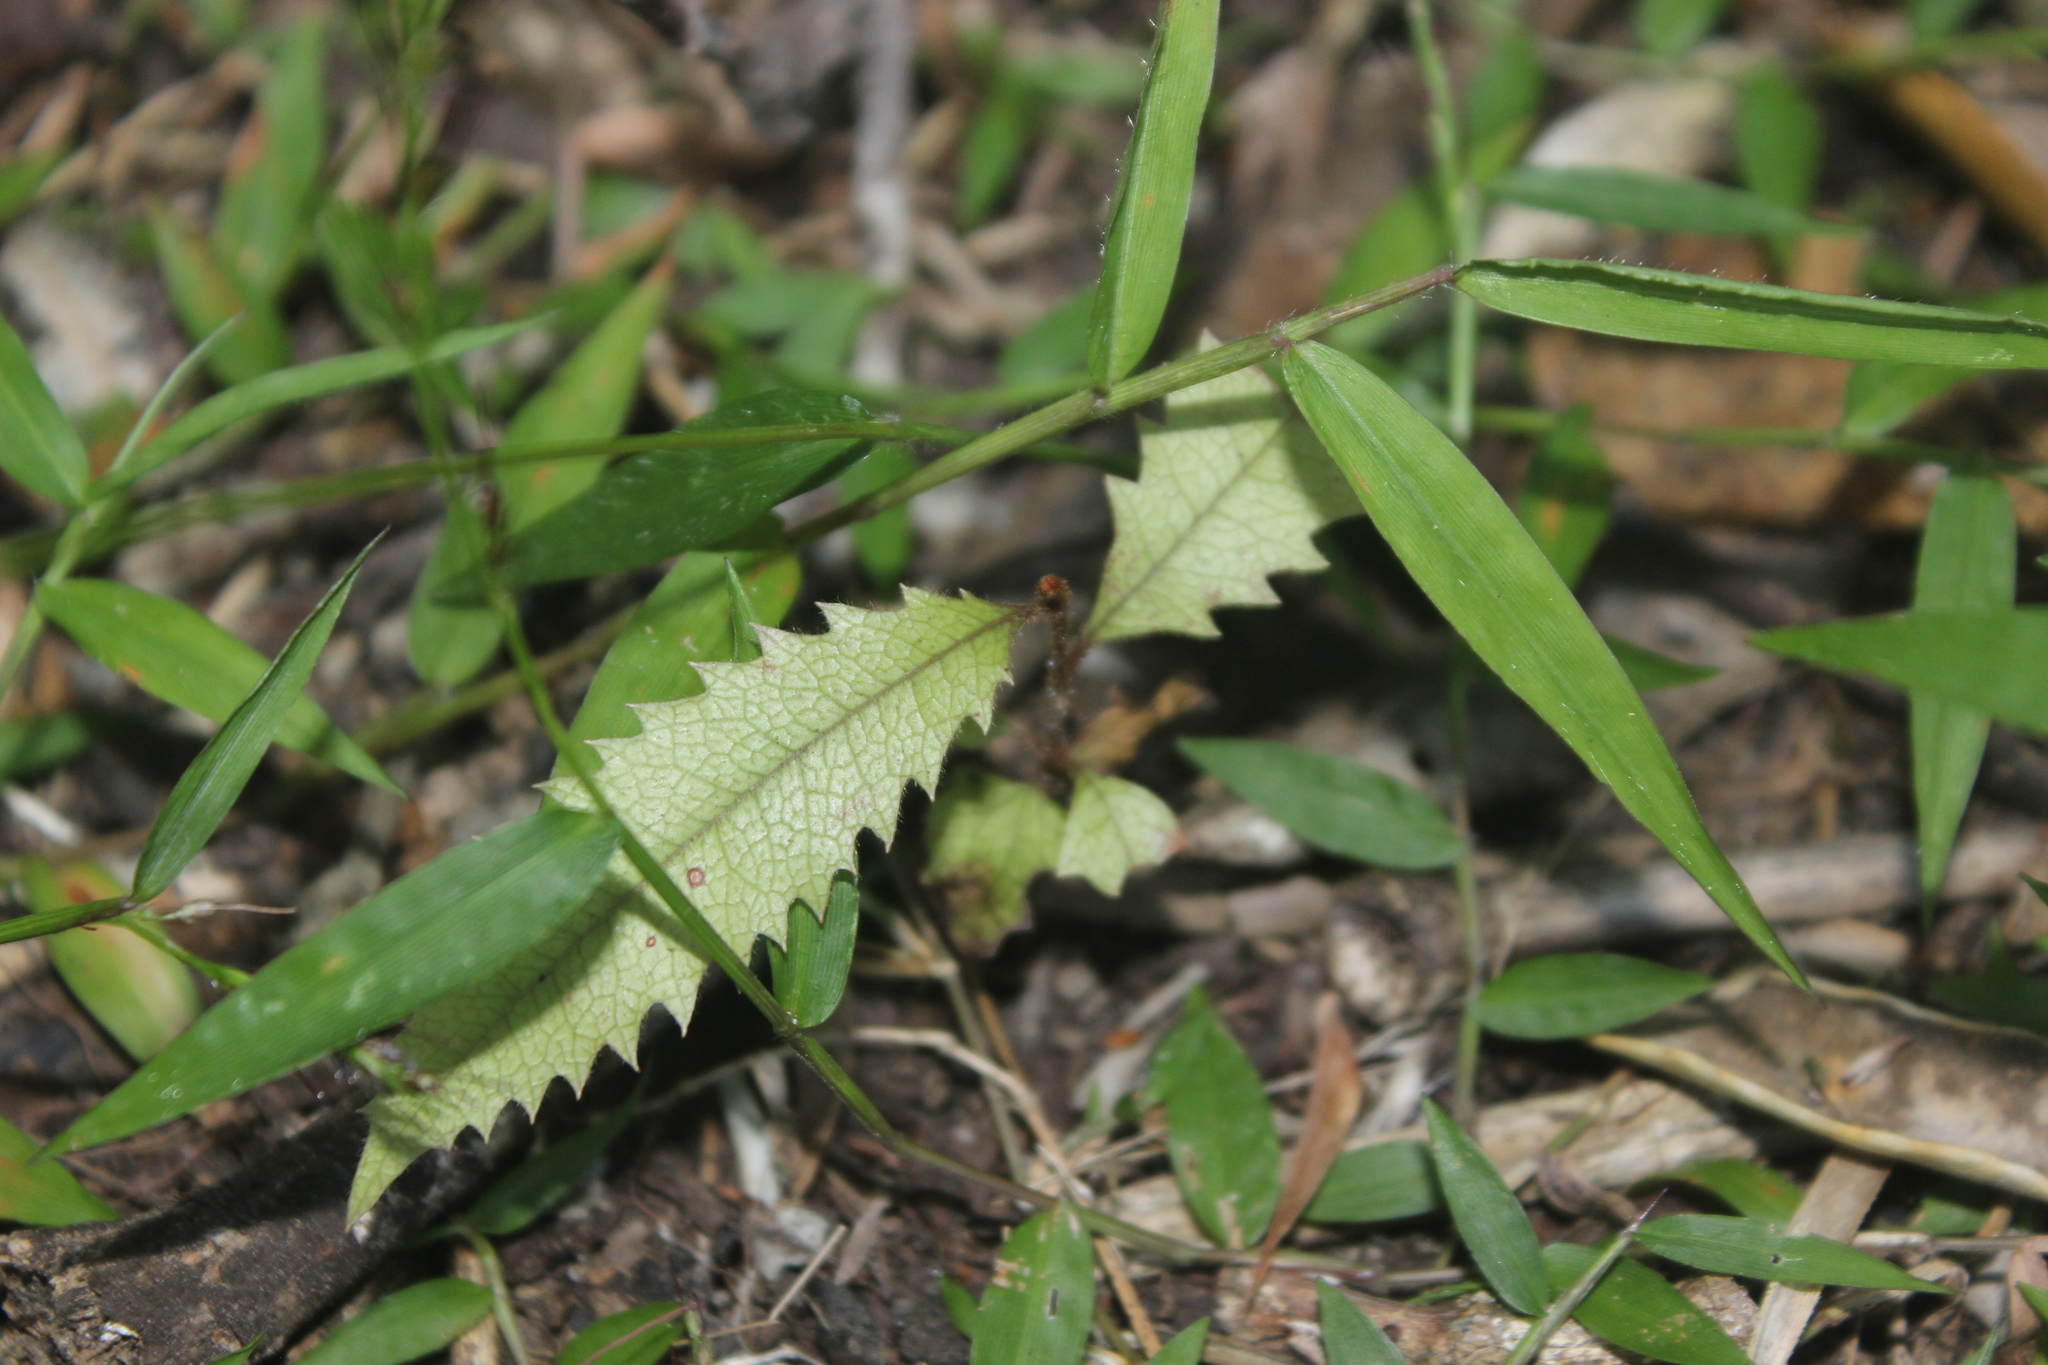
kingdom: Plantae
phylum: Tracheophyta
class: Magnoliopsida
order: Proteales
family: Proteaceae
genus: Knightia
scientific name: Knightia excelsa
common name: New zealand-honeysuckle
